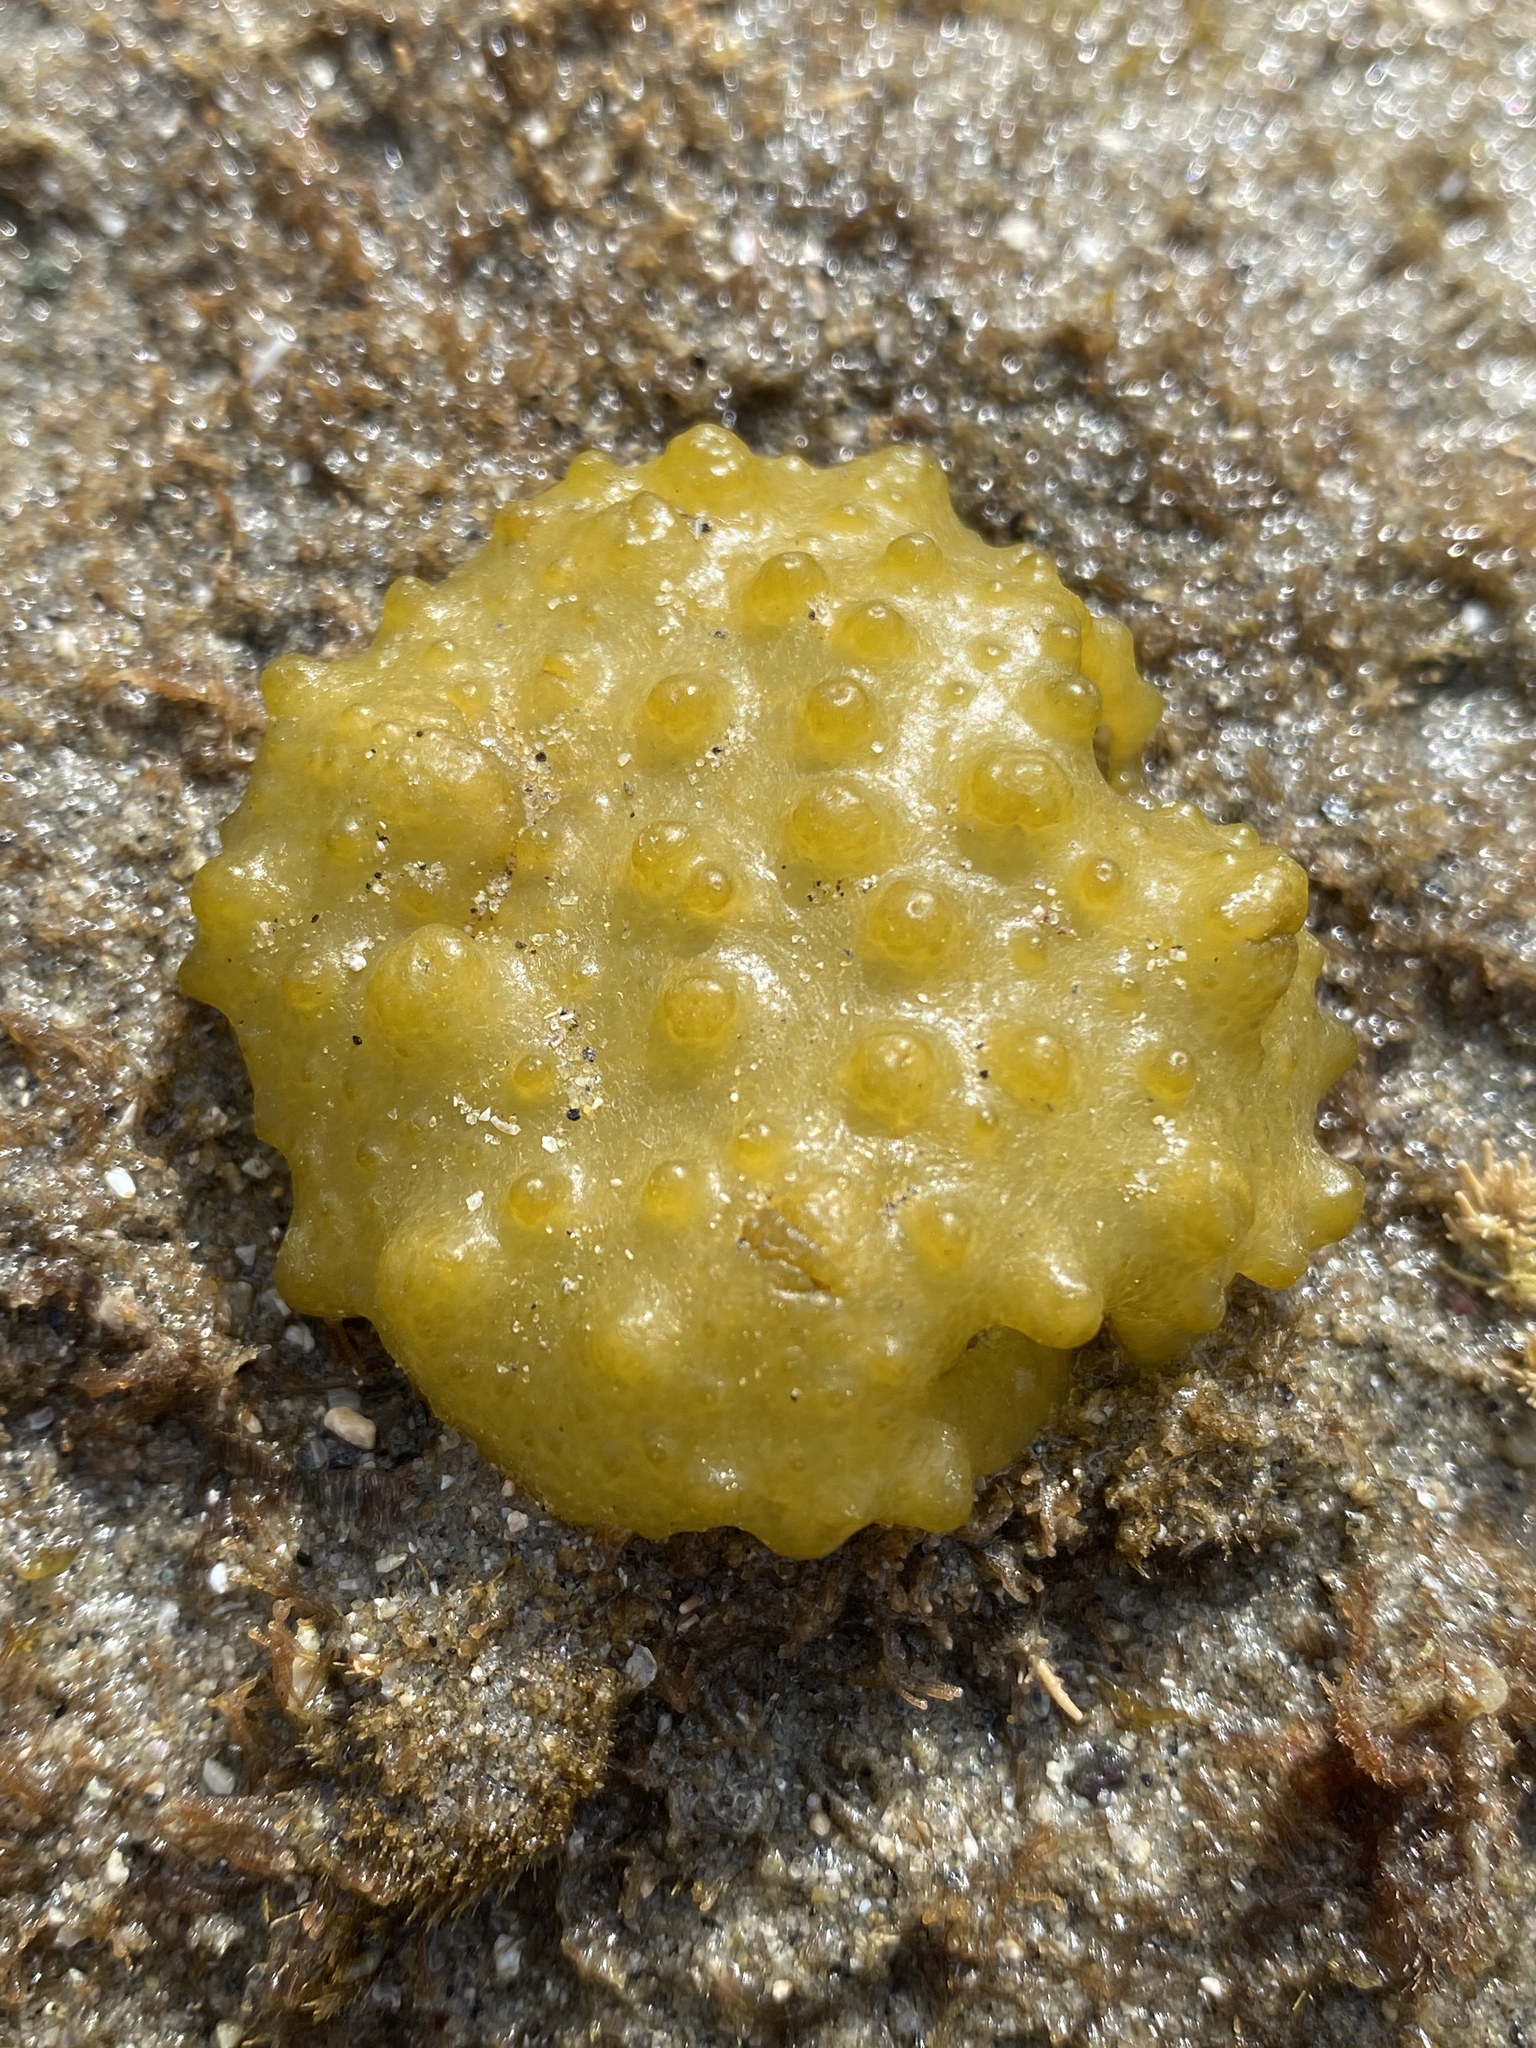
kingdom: Chromista
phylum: Ochrophyta
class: Phaeophyceae
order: Scytosiphonales
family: Scytosiphonaceae
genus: Colpomenia
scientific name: Colpomenia
